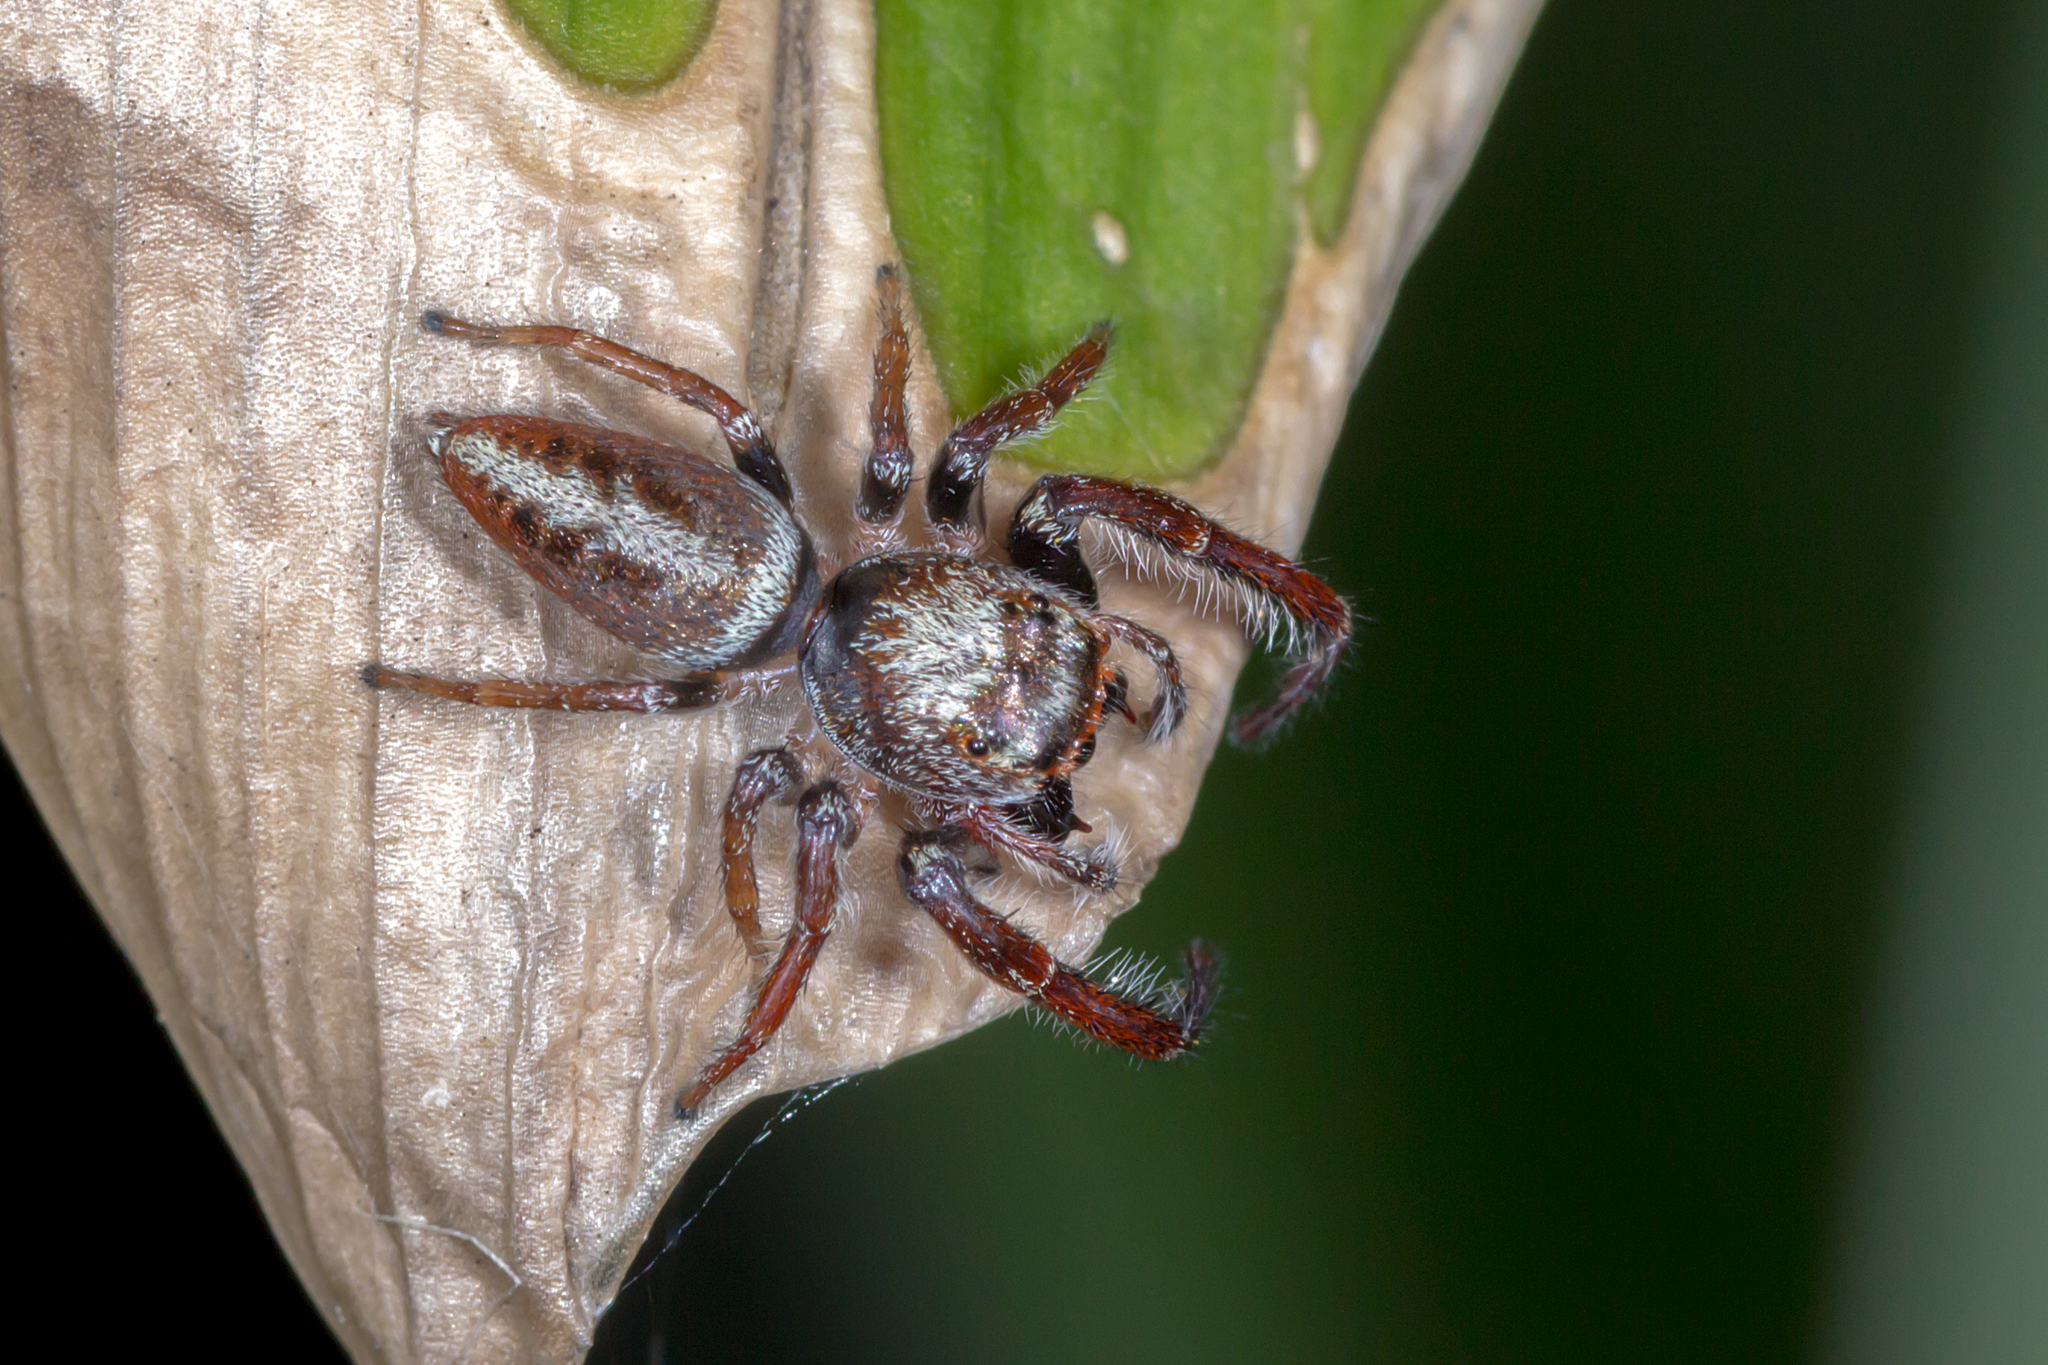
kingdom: Animalia
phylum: Arthropoda
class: Arachnida
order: Araneae
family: Salticidae
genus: Opisthoncus
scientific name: Opisthoncus nigrofemoratus
